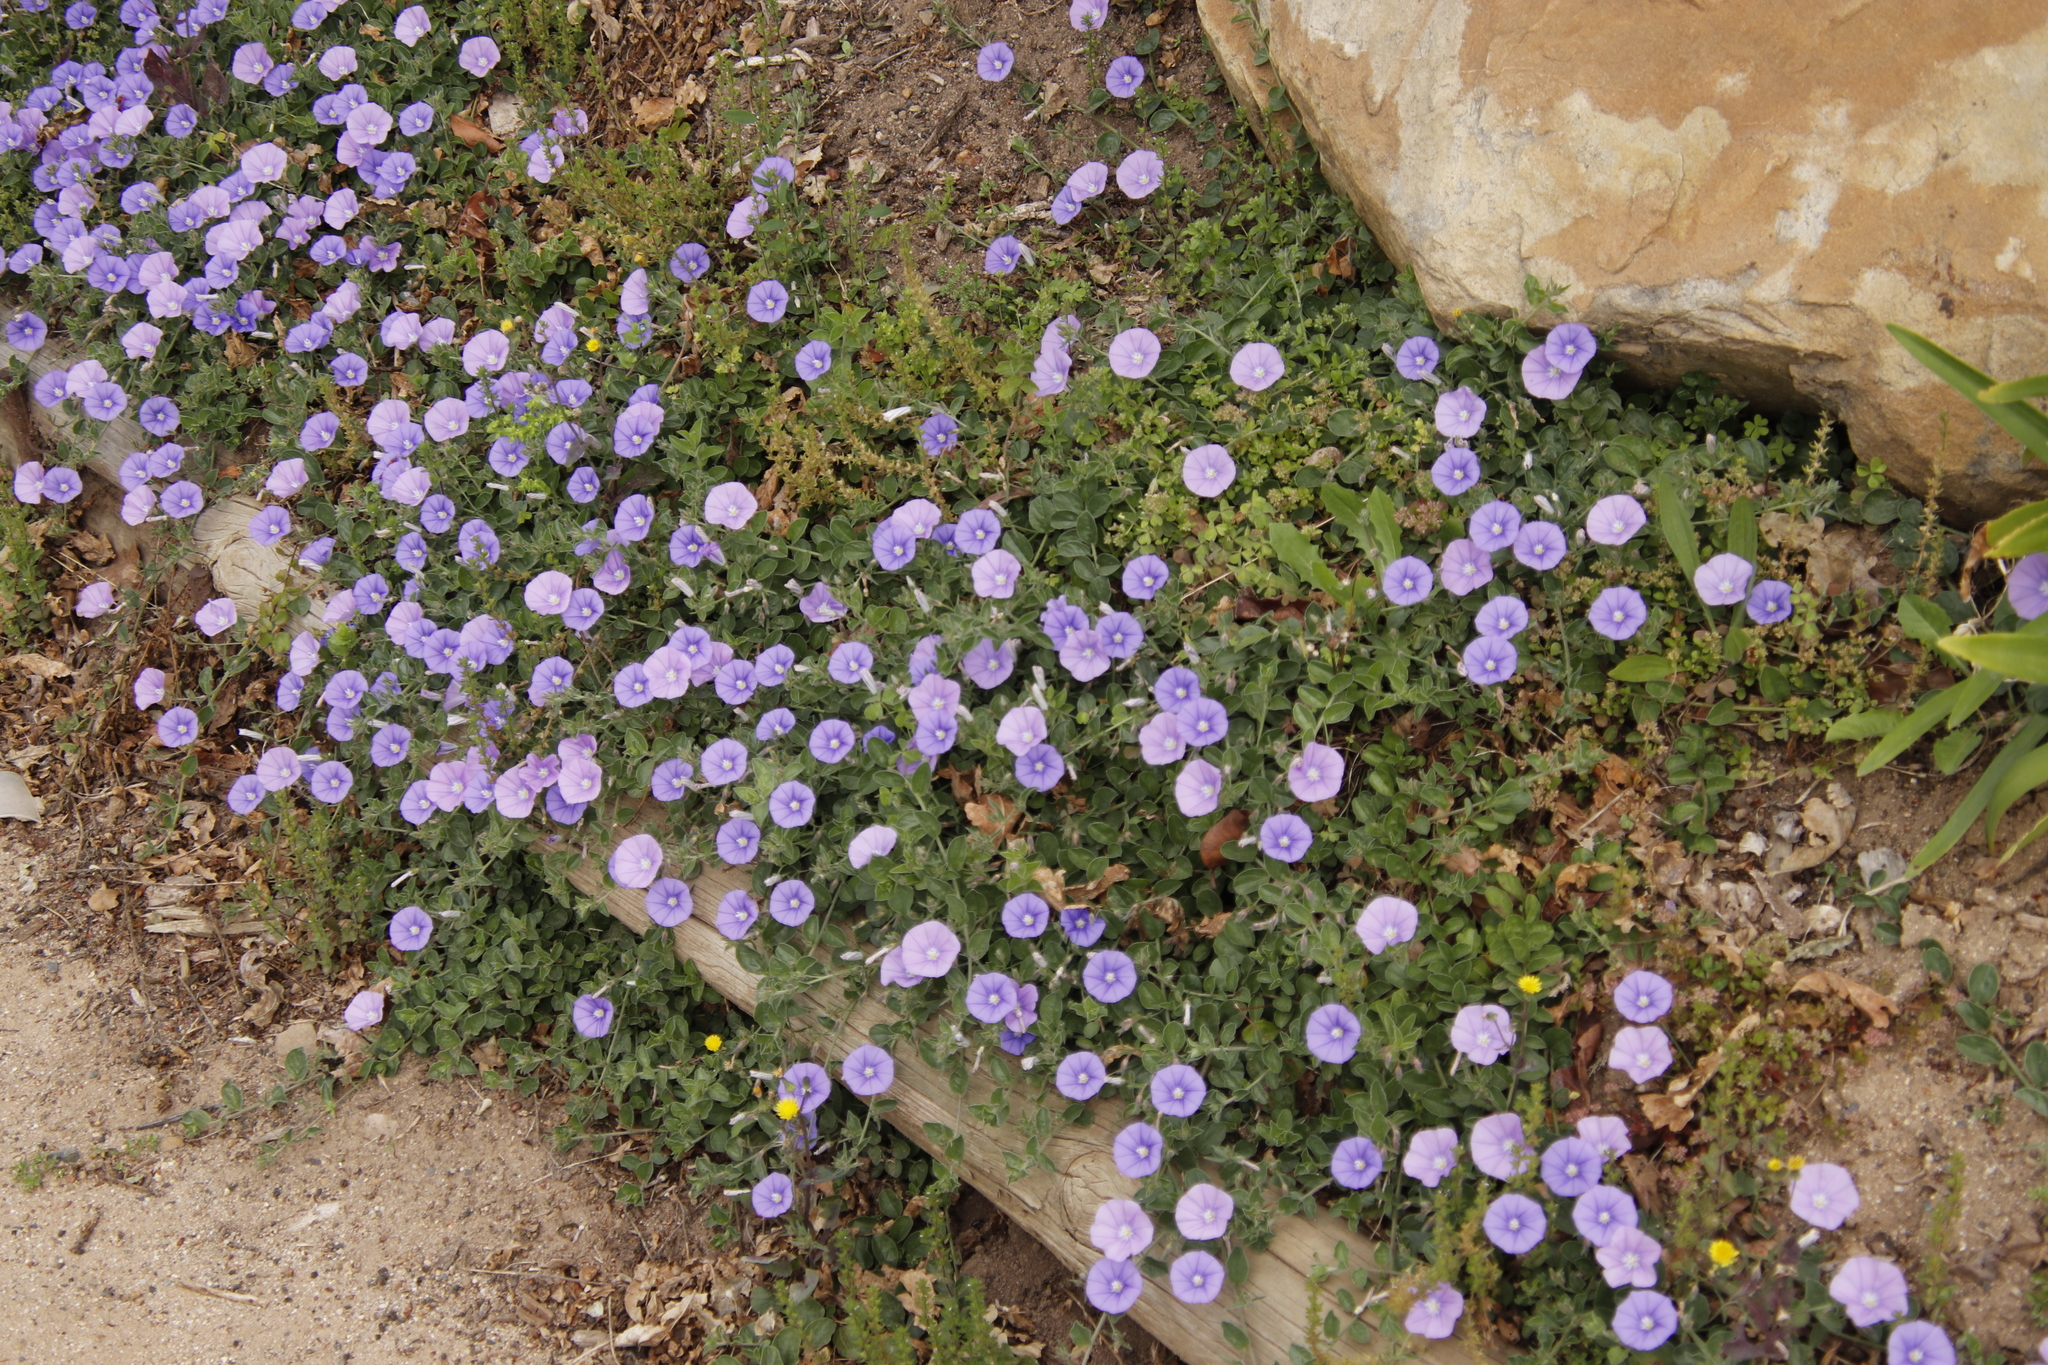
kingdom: Plantae
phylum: Tracheophyta
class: Magnoliopsida
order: Solanales
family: Convolvulaceae
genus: Convolvulus
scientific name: Convolvulus sabatius
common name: Ground blue-convolvulus
